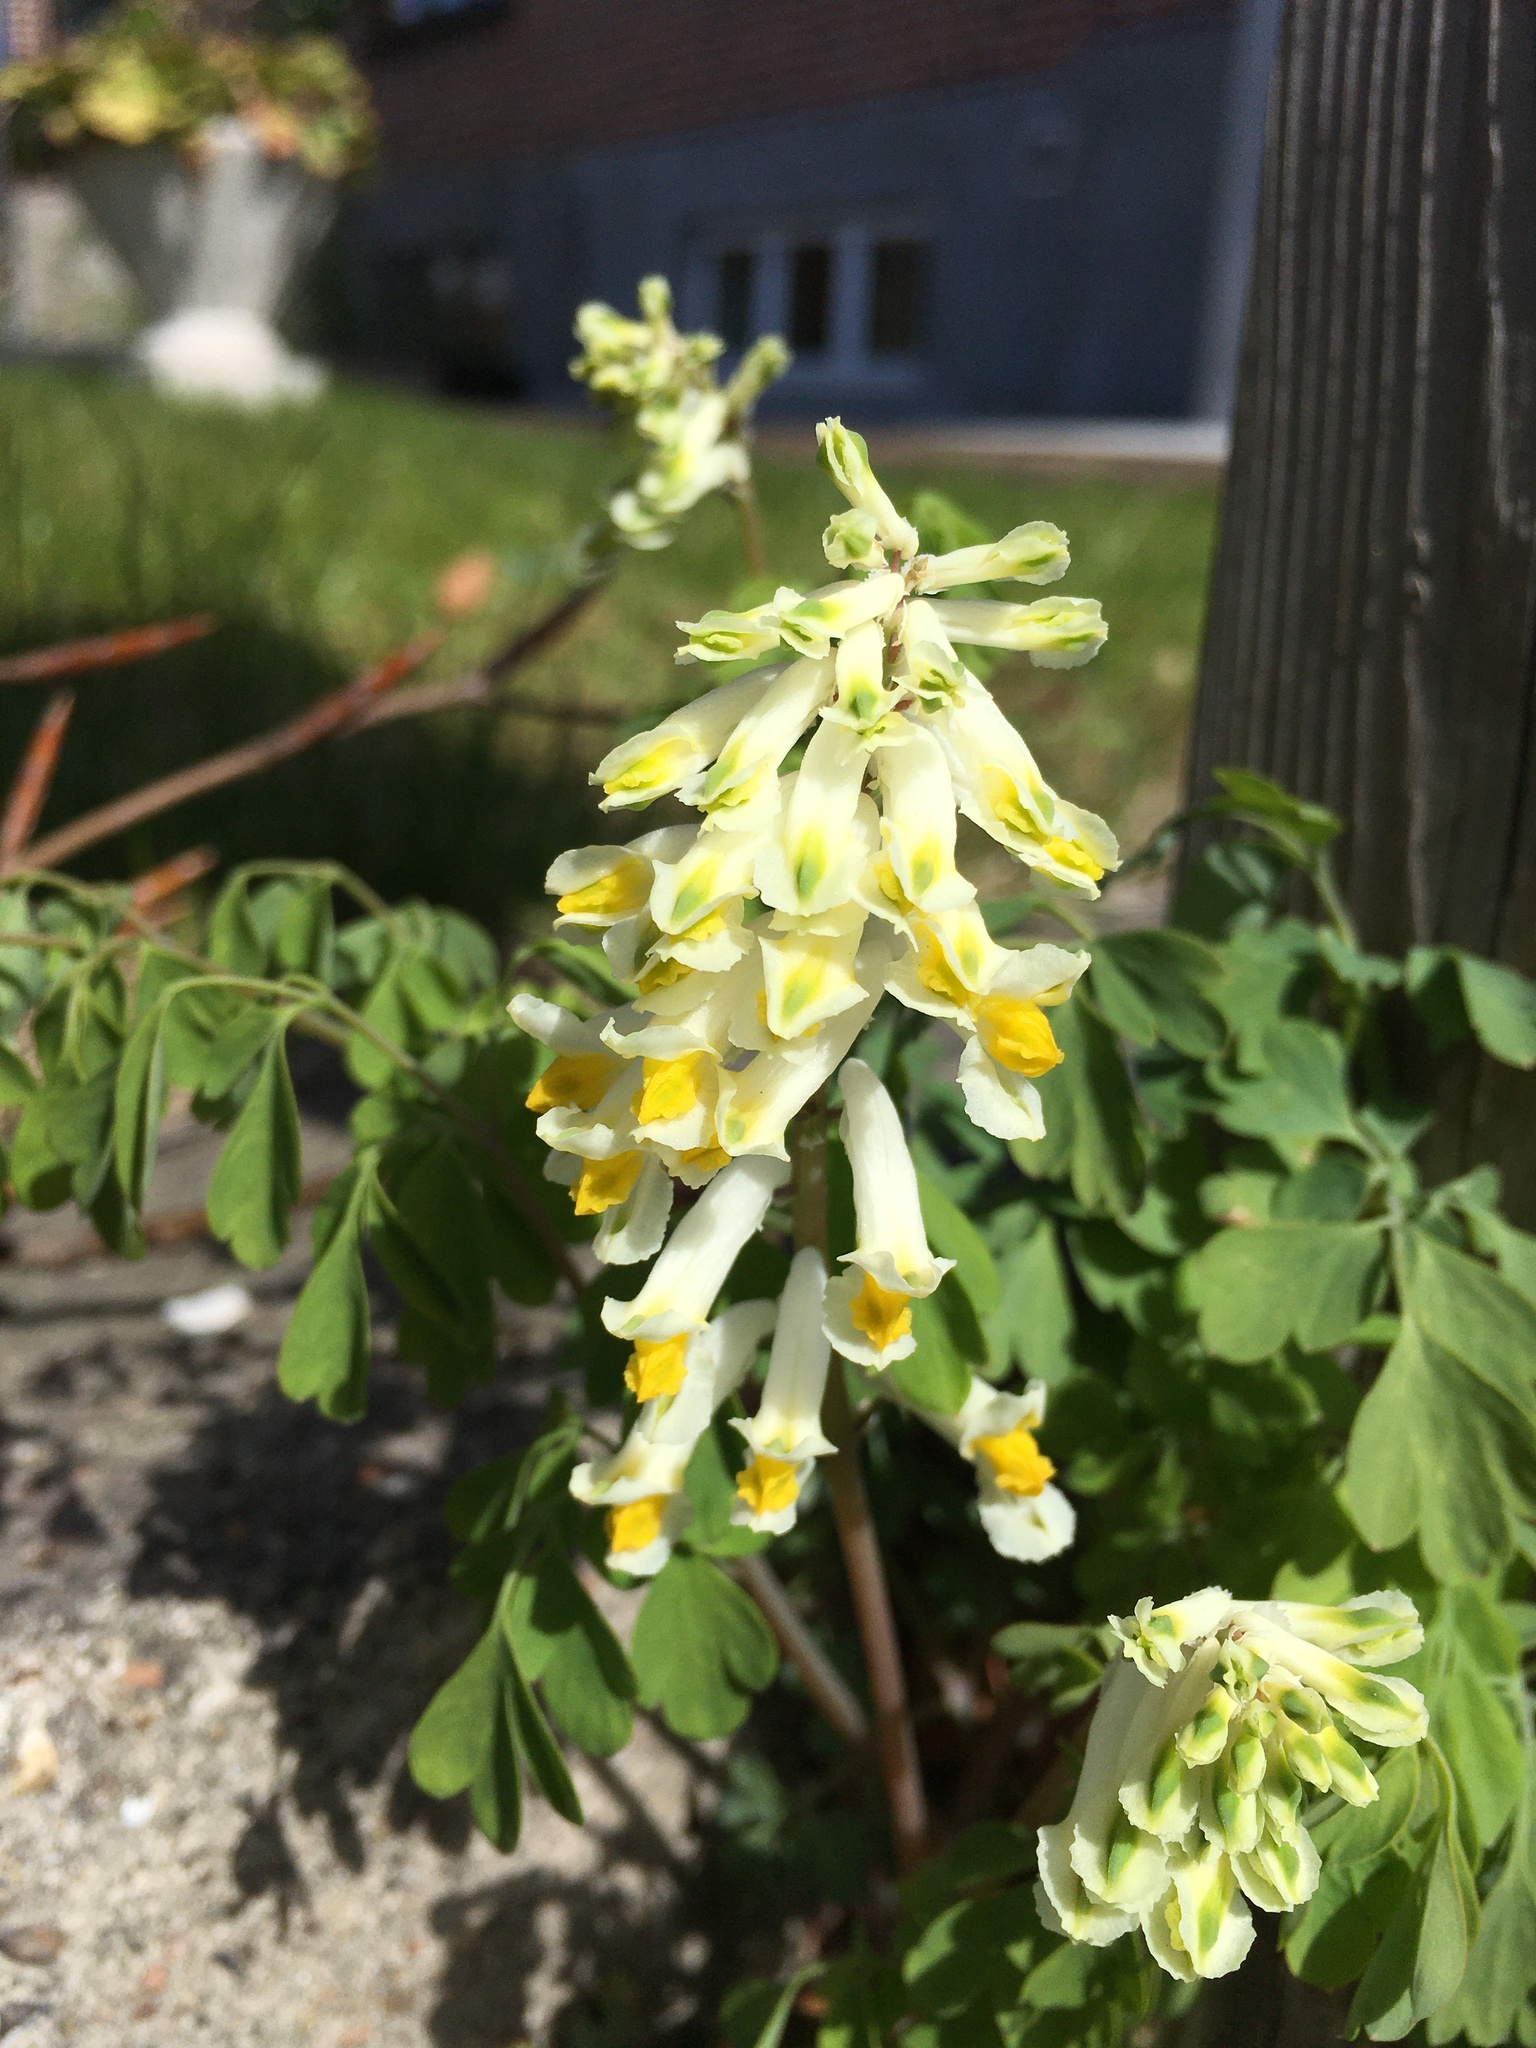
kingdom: Plantae
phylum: Tracheophyta
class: Magnoliopsida
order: Ranunculales
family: Papaveraceae
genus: Pseudofumaria
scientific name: Pseudofumaria alba
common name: Pale corydalis
